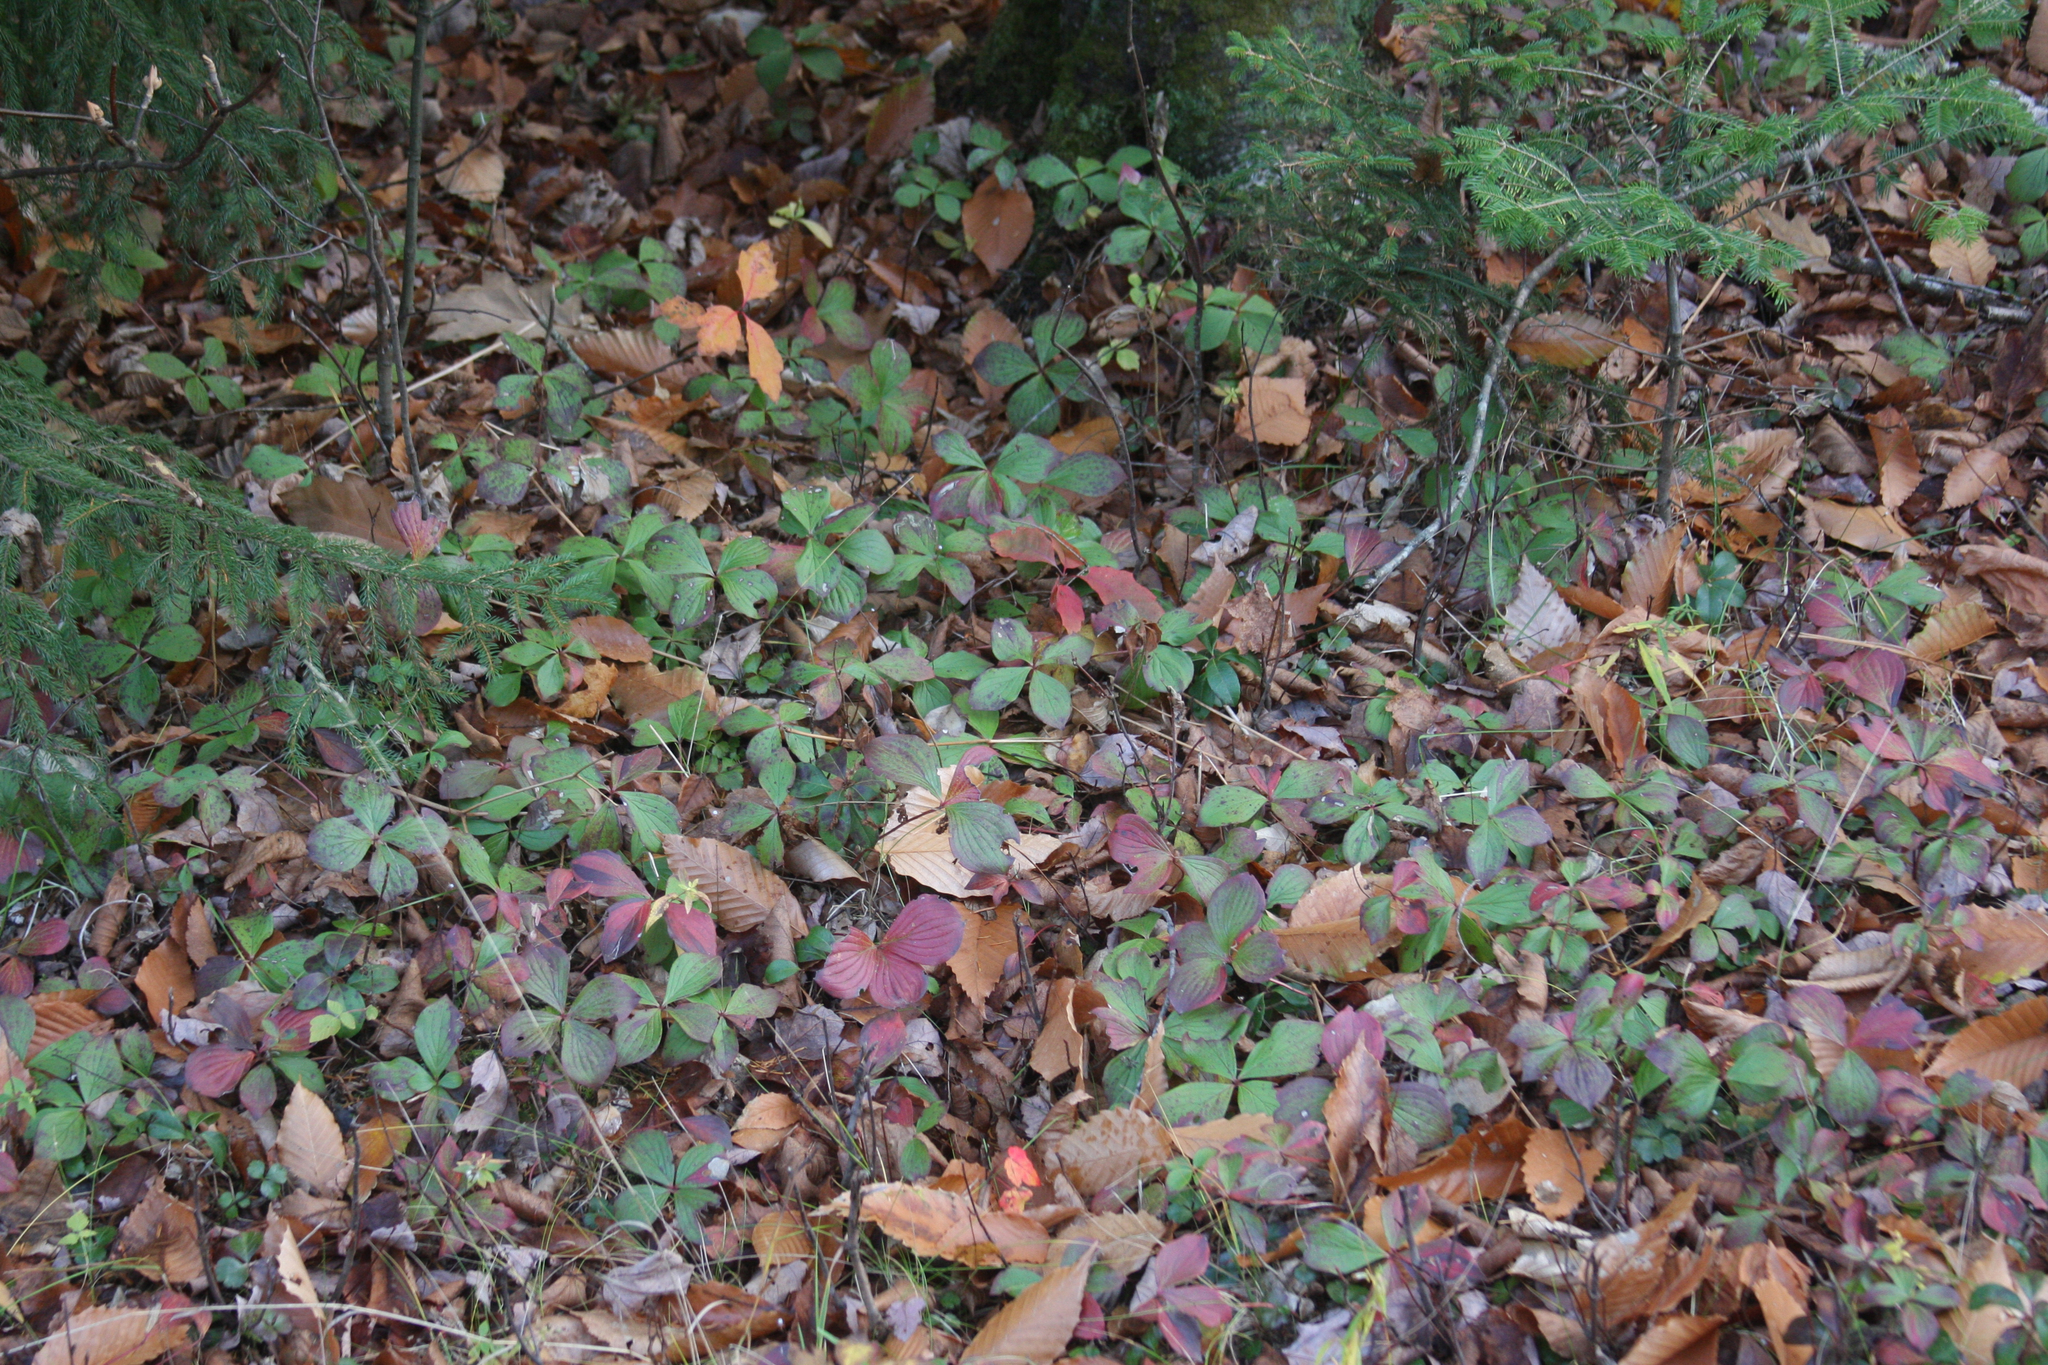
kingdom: Plantae
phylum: Tracheophyta
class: Magnoliopsida
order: Cornales
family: Cornaceae
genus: Cornus
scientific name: Cornus canadensis
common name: Creeping dogwood
